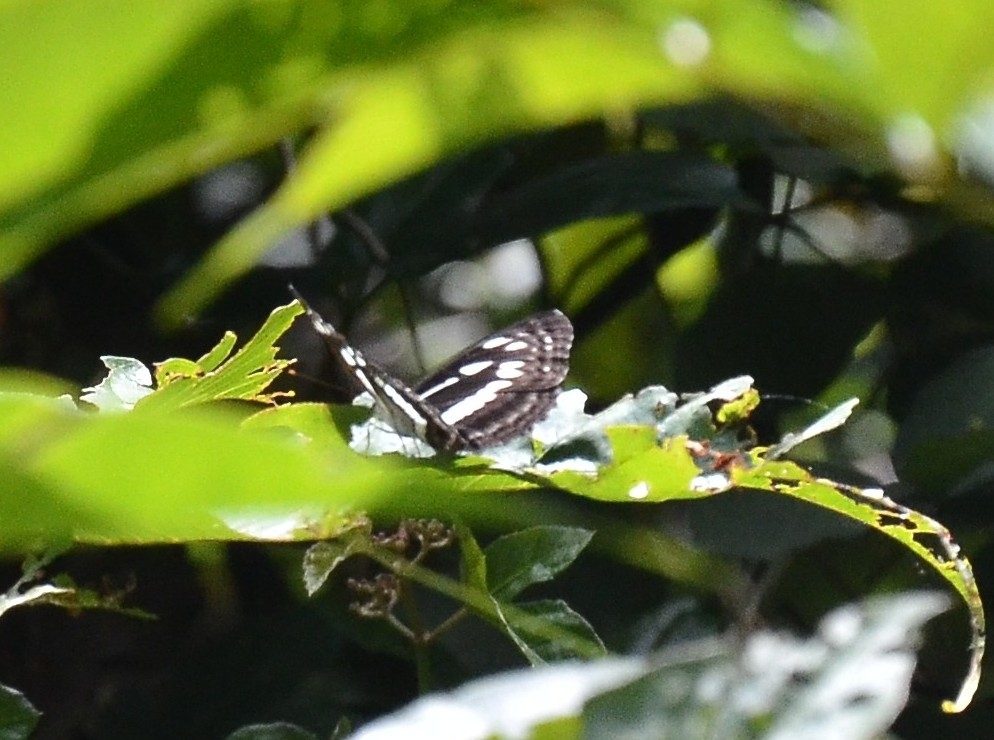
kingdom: Animalia
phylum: Arthropoda
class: Insecta
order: Lepidoptera
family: Nymphalidae
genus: Neptis
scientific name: Neptis jumbah
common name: Chestnut-streaked sailer
